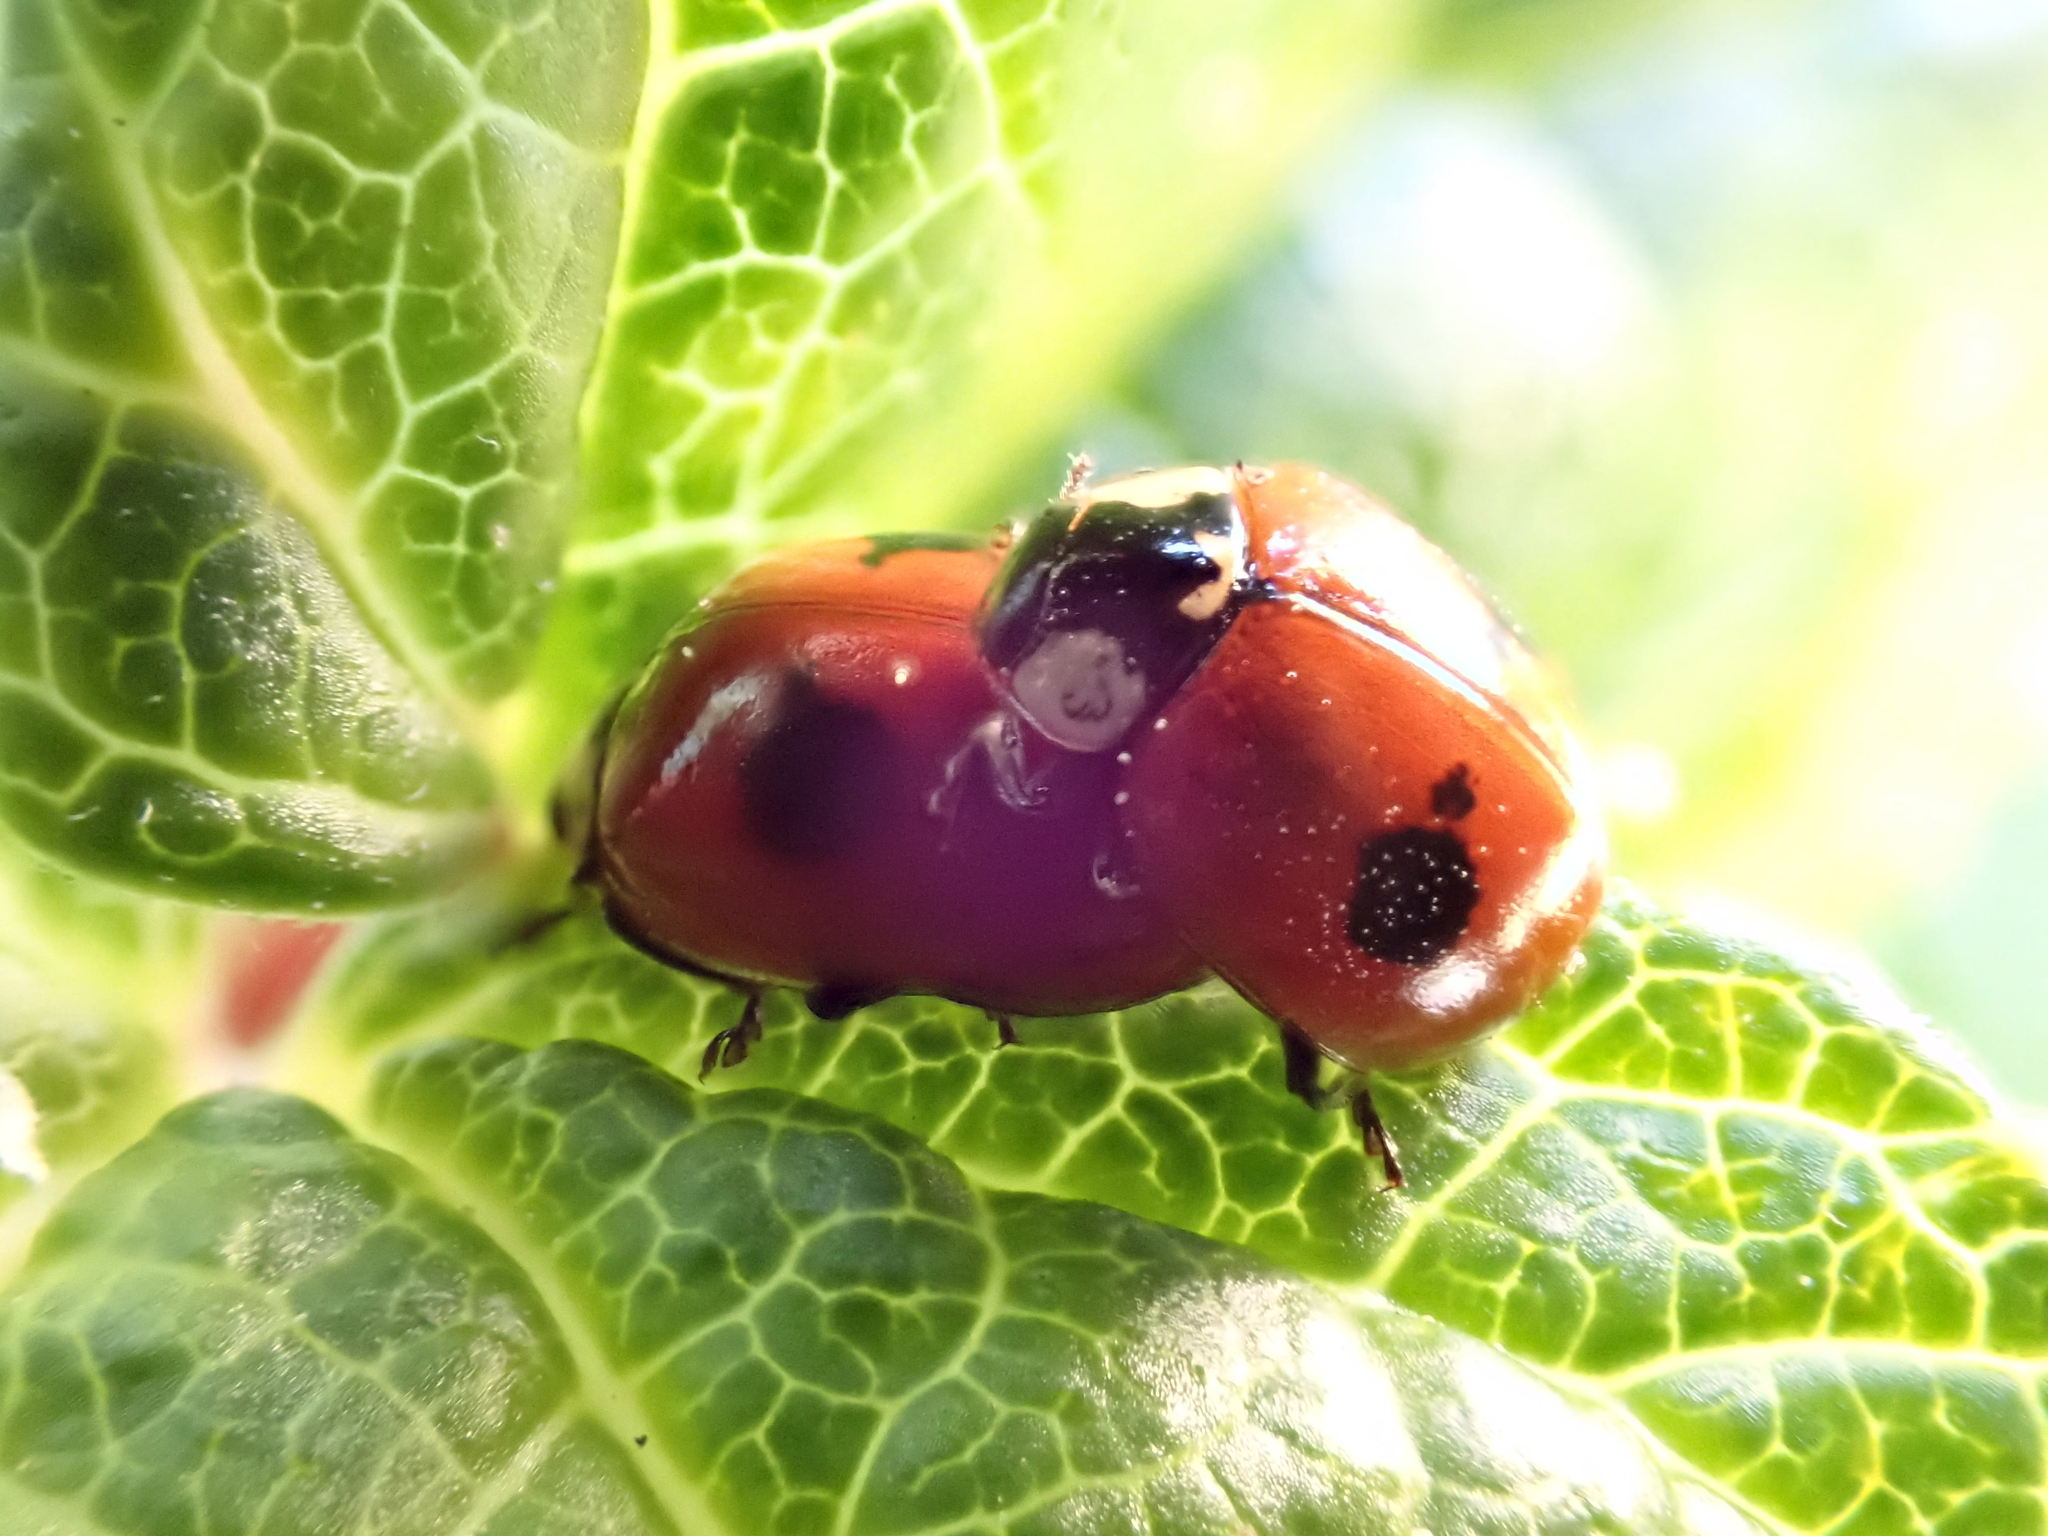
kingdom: Animalia
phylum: Arthropoda
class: Insecta
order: Coleoptera
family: Coccinellidae
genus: Adalia
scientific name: Adalia bipunctata
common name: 2-spot ladybird
